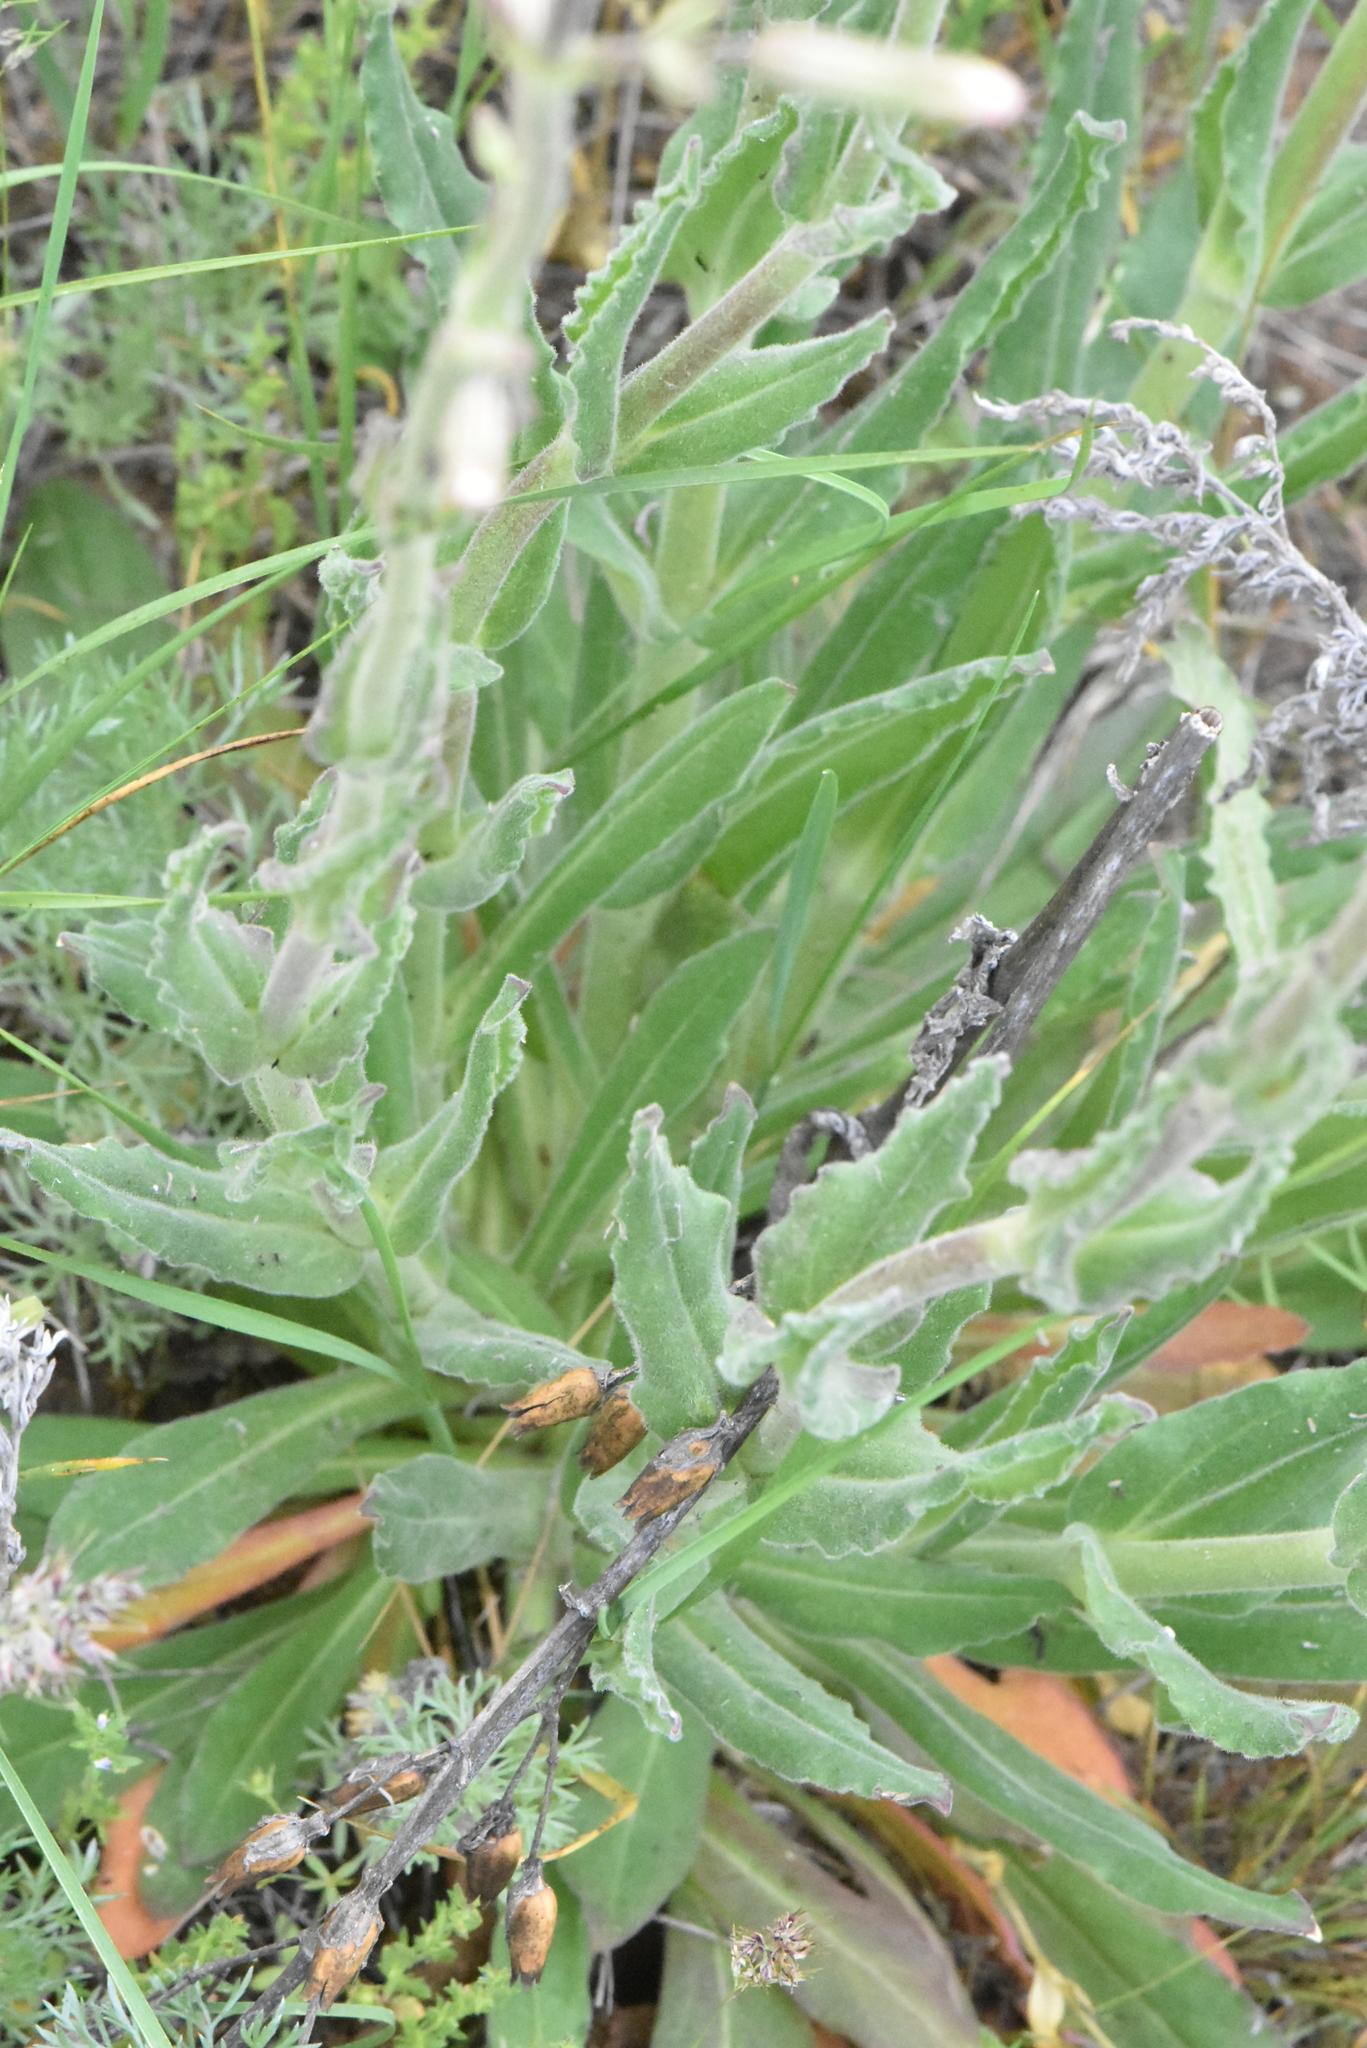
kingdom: Plantae
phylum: Tracheophyta
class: Magnoliopsida
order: Caryophyllales
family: Caryophyllaceae
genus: Silene
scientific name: Silene viscosa
